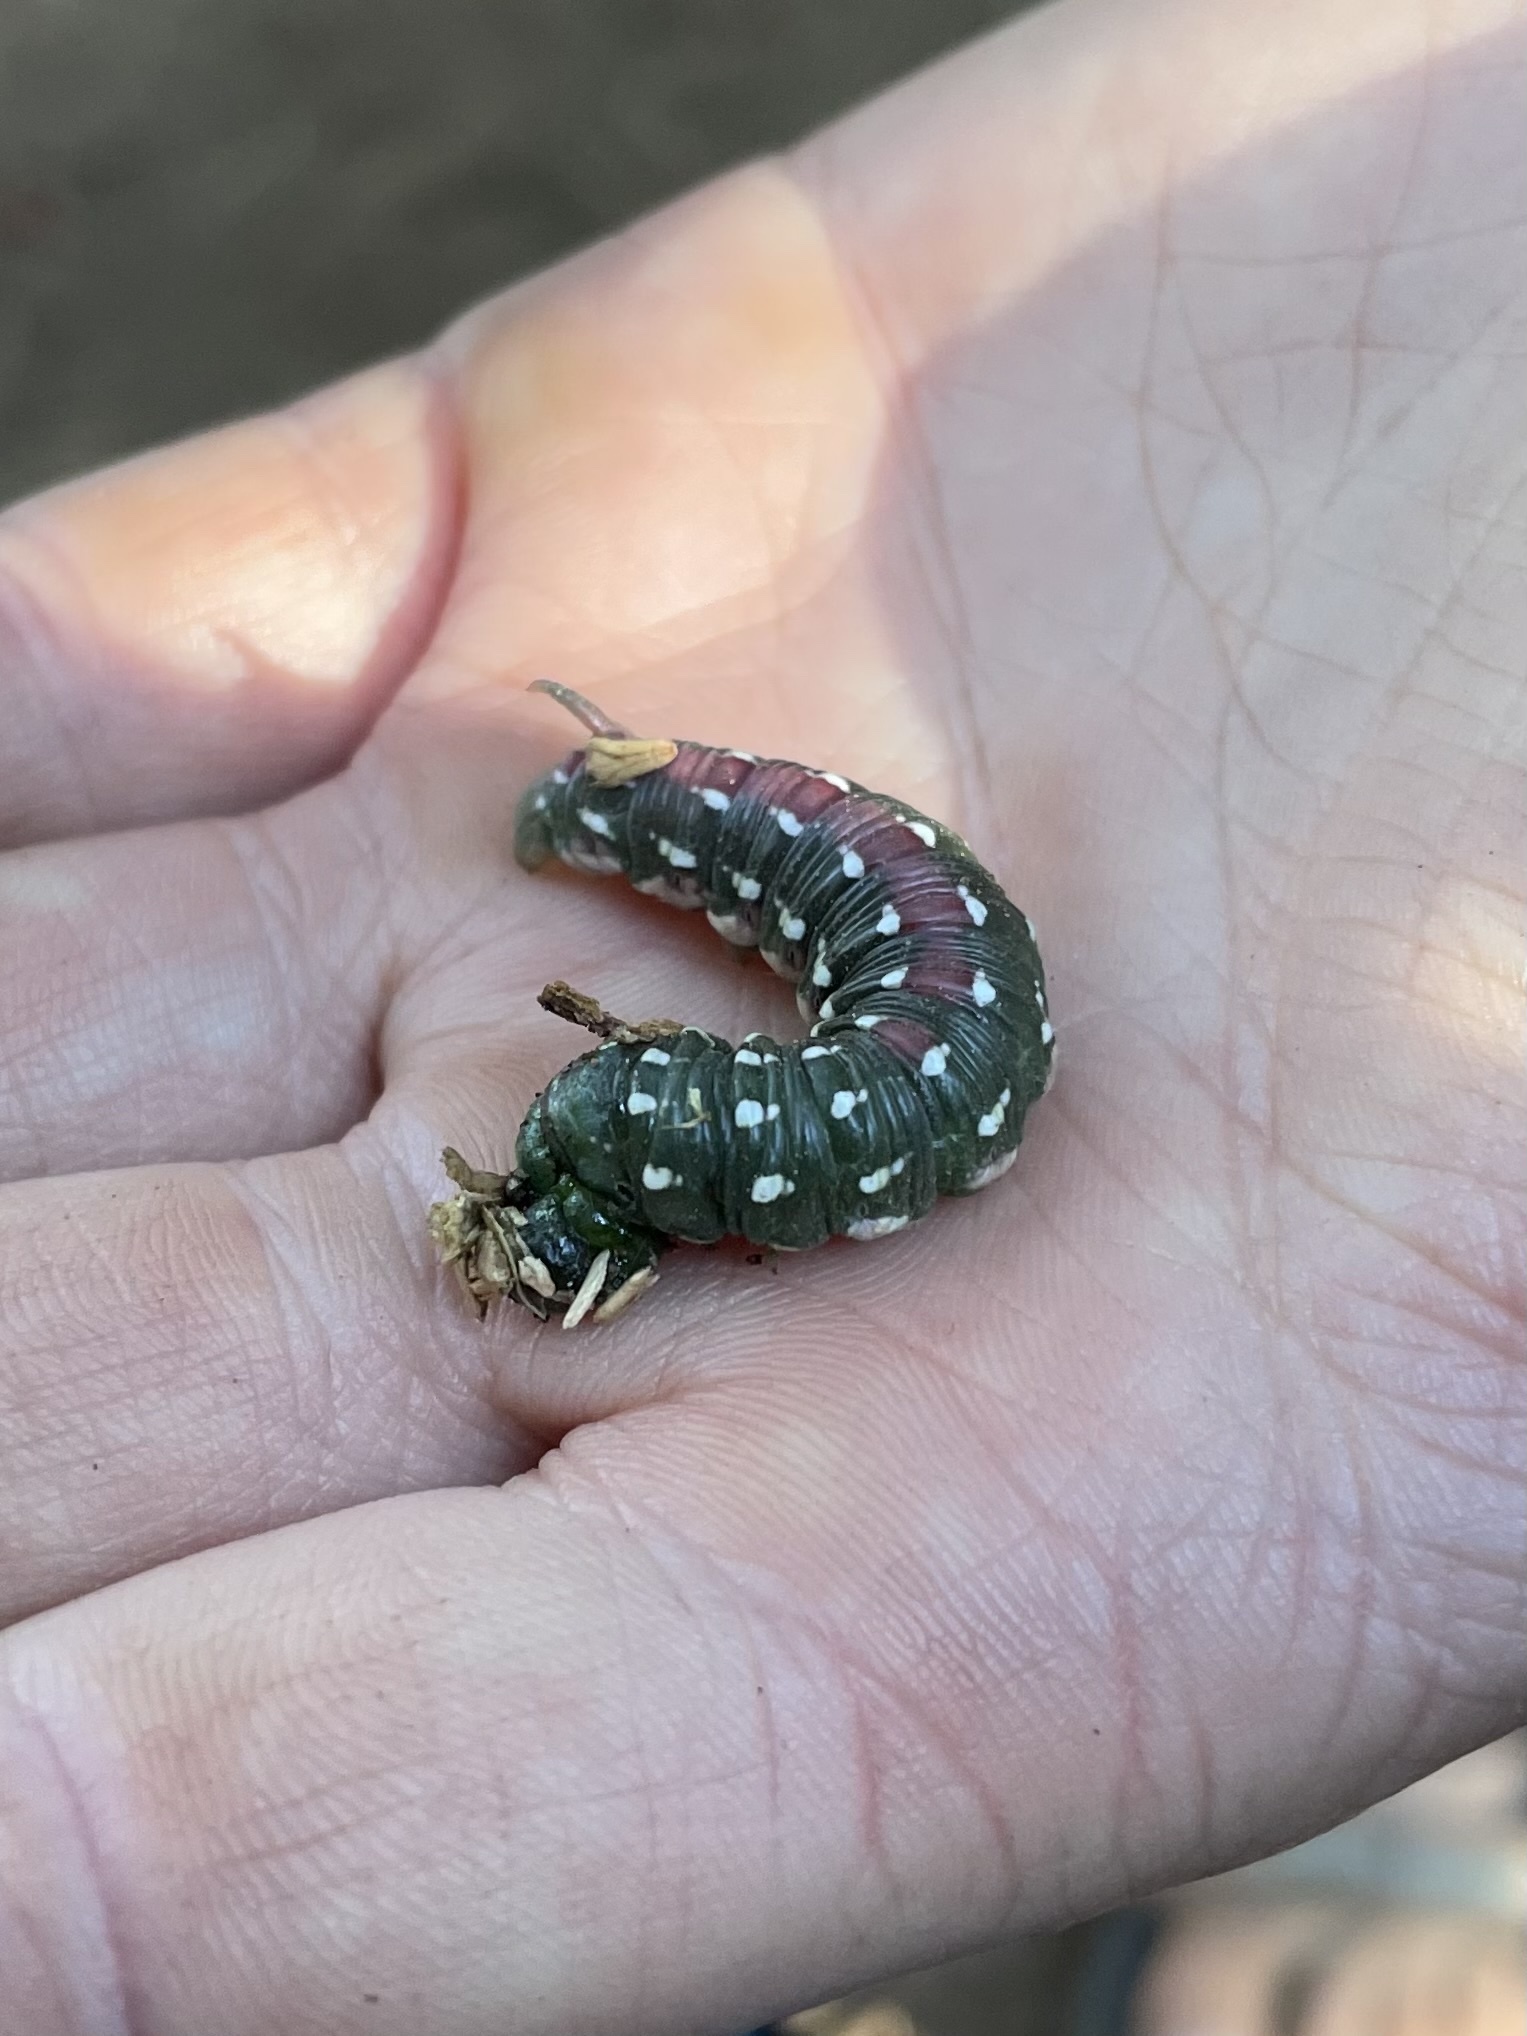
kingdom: Animalia
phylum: Arthropoda
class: Insecta
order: Lepidoptera
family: Sphingidae
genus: Sphinx
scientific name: Sphinx sequoiae
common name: Sequoia sphinx
